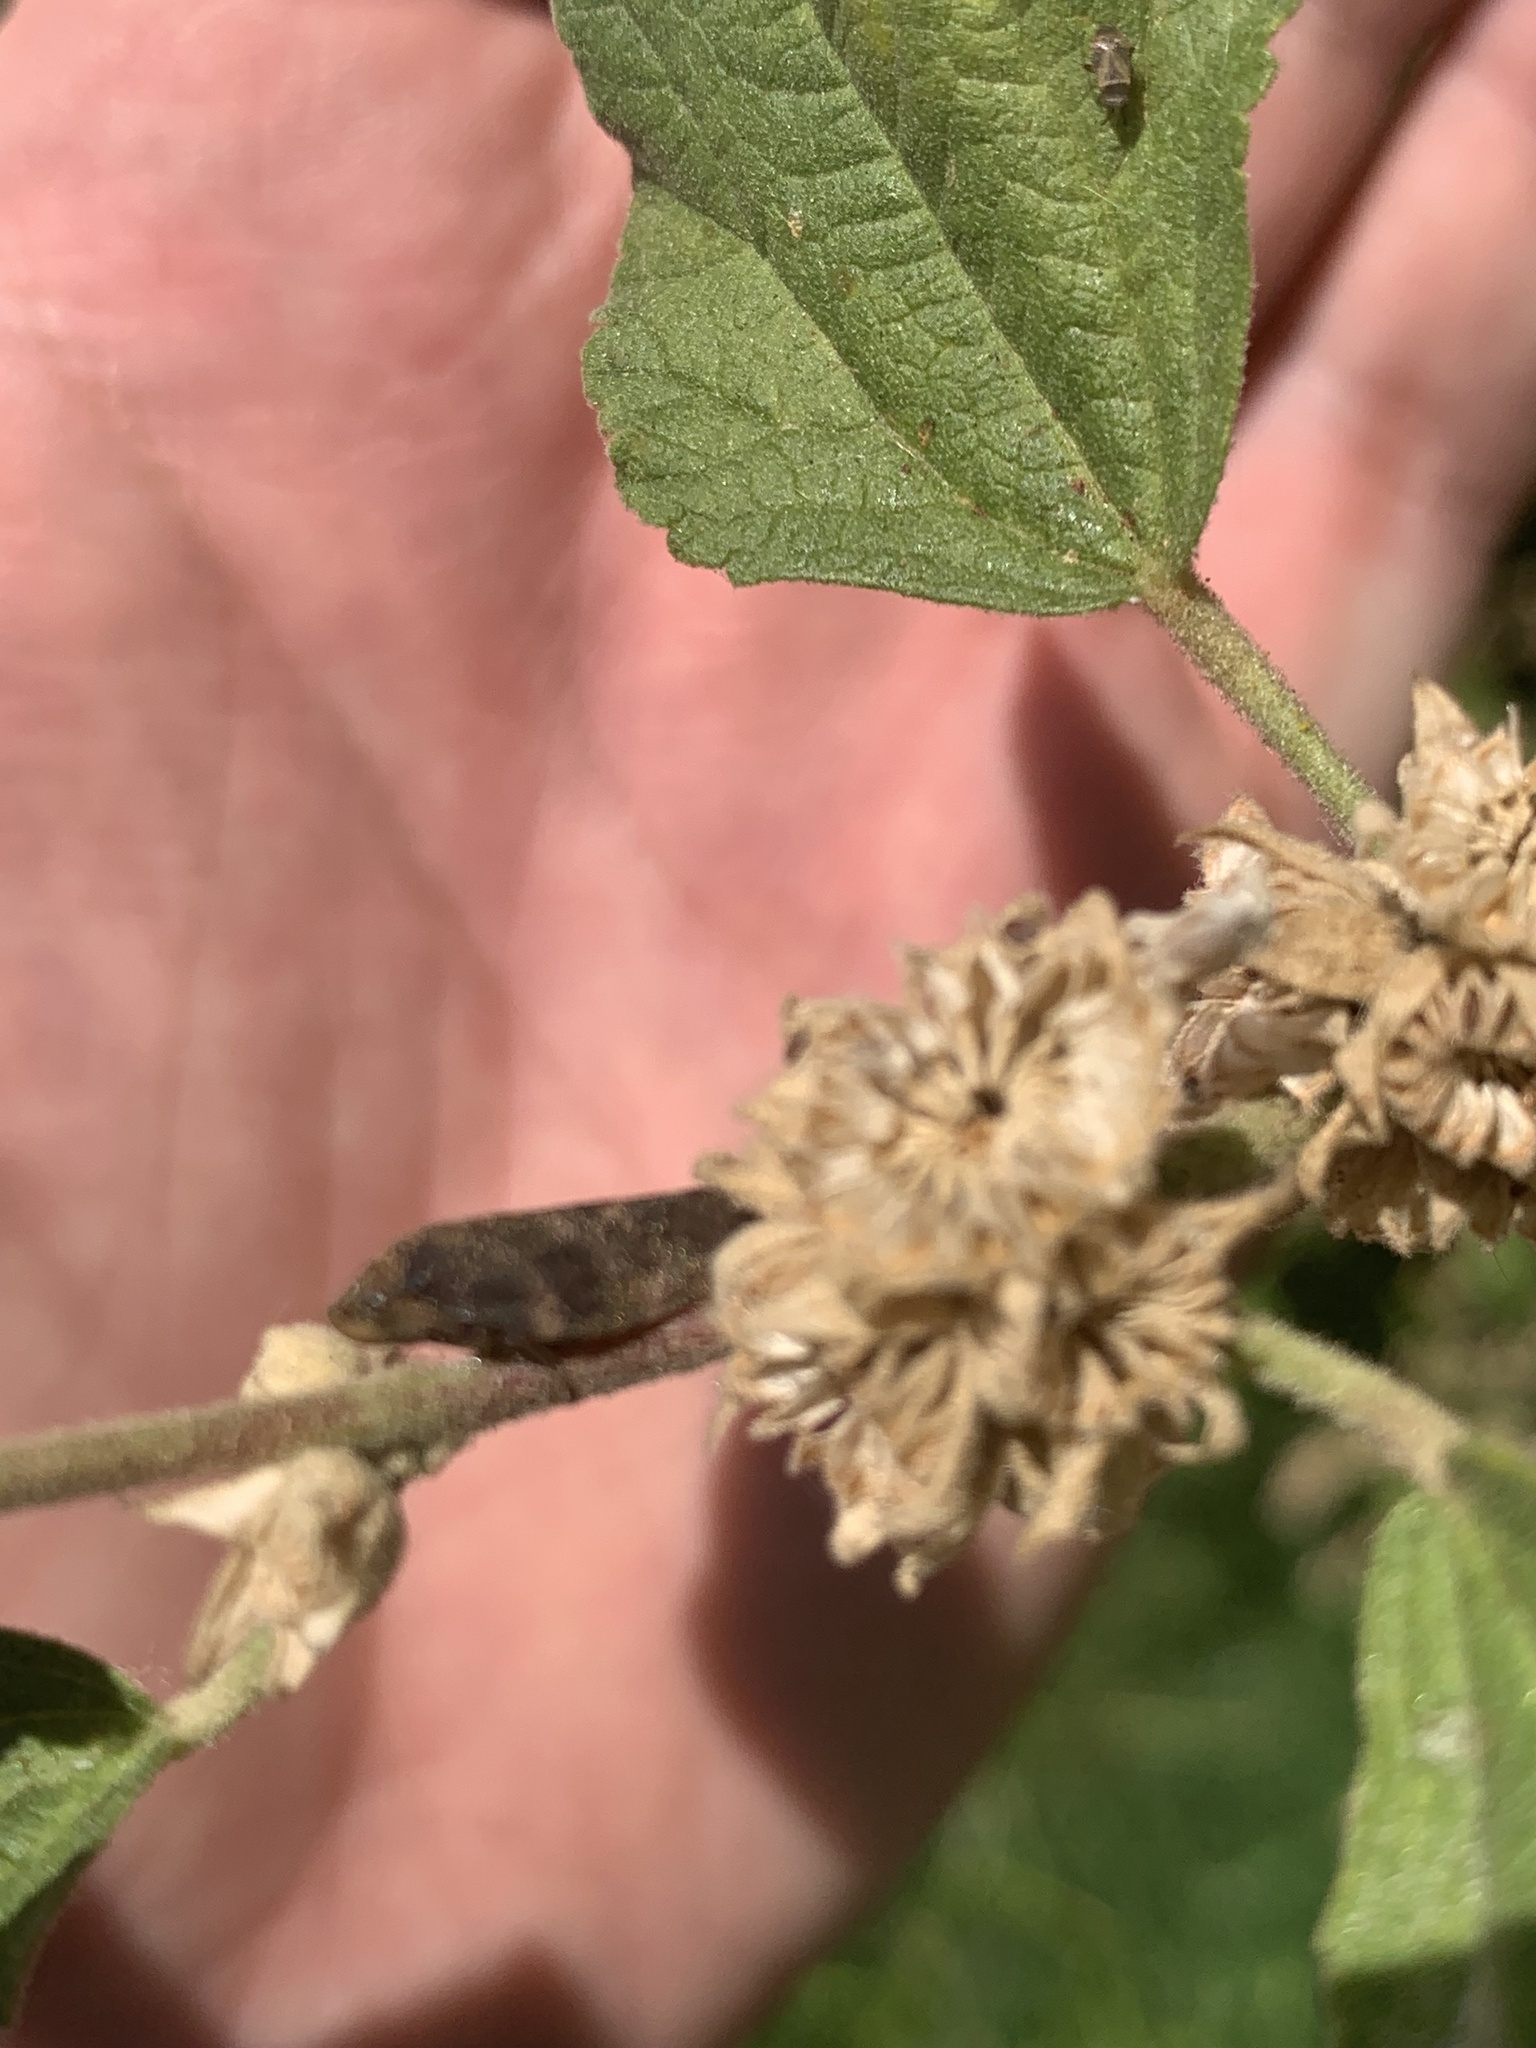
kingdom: Animalia
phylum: Arthropoda
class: Insecta
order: Hemiptera
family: Aphrophoridae
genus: Cephisus
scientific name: Cephisus siccifolius
